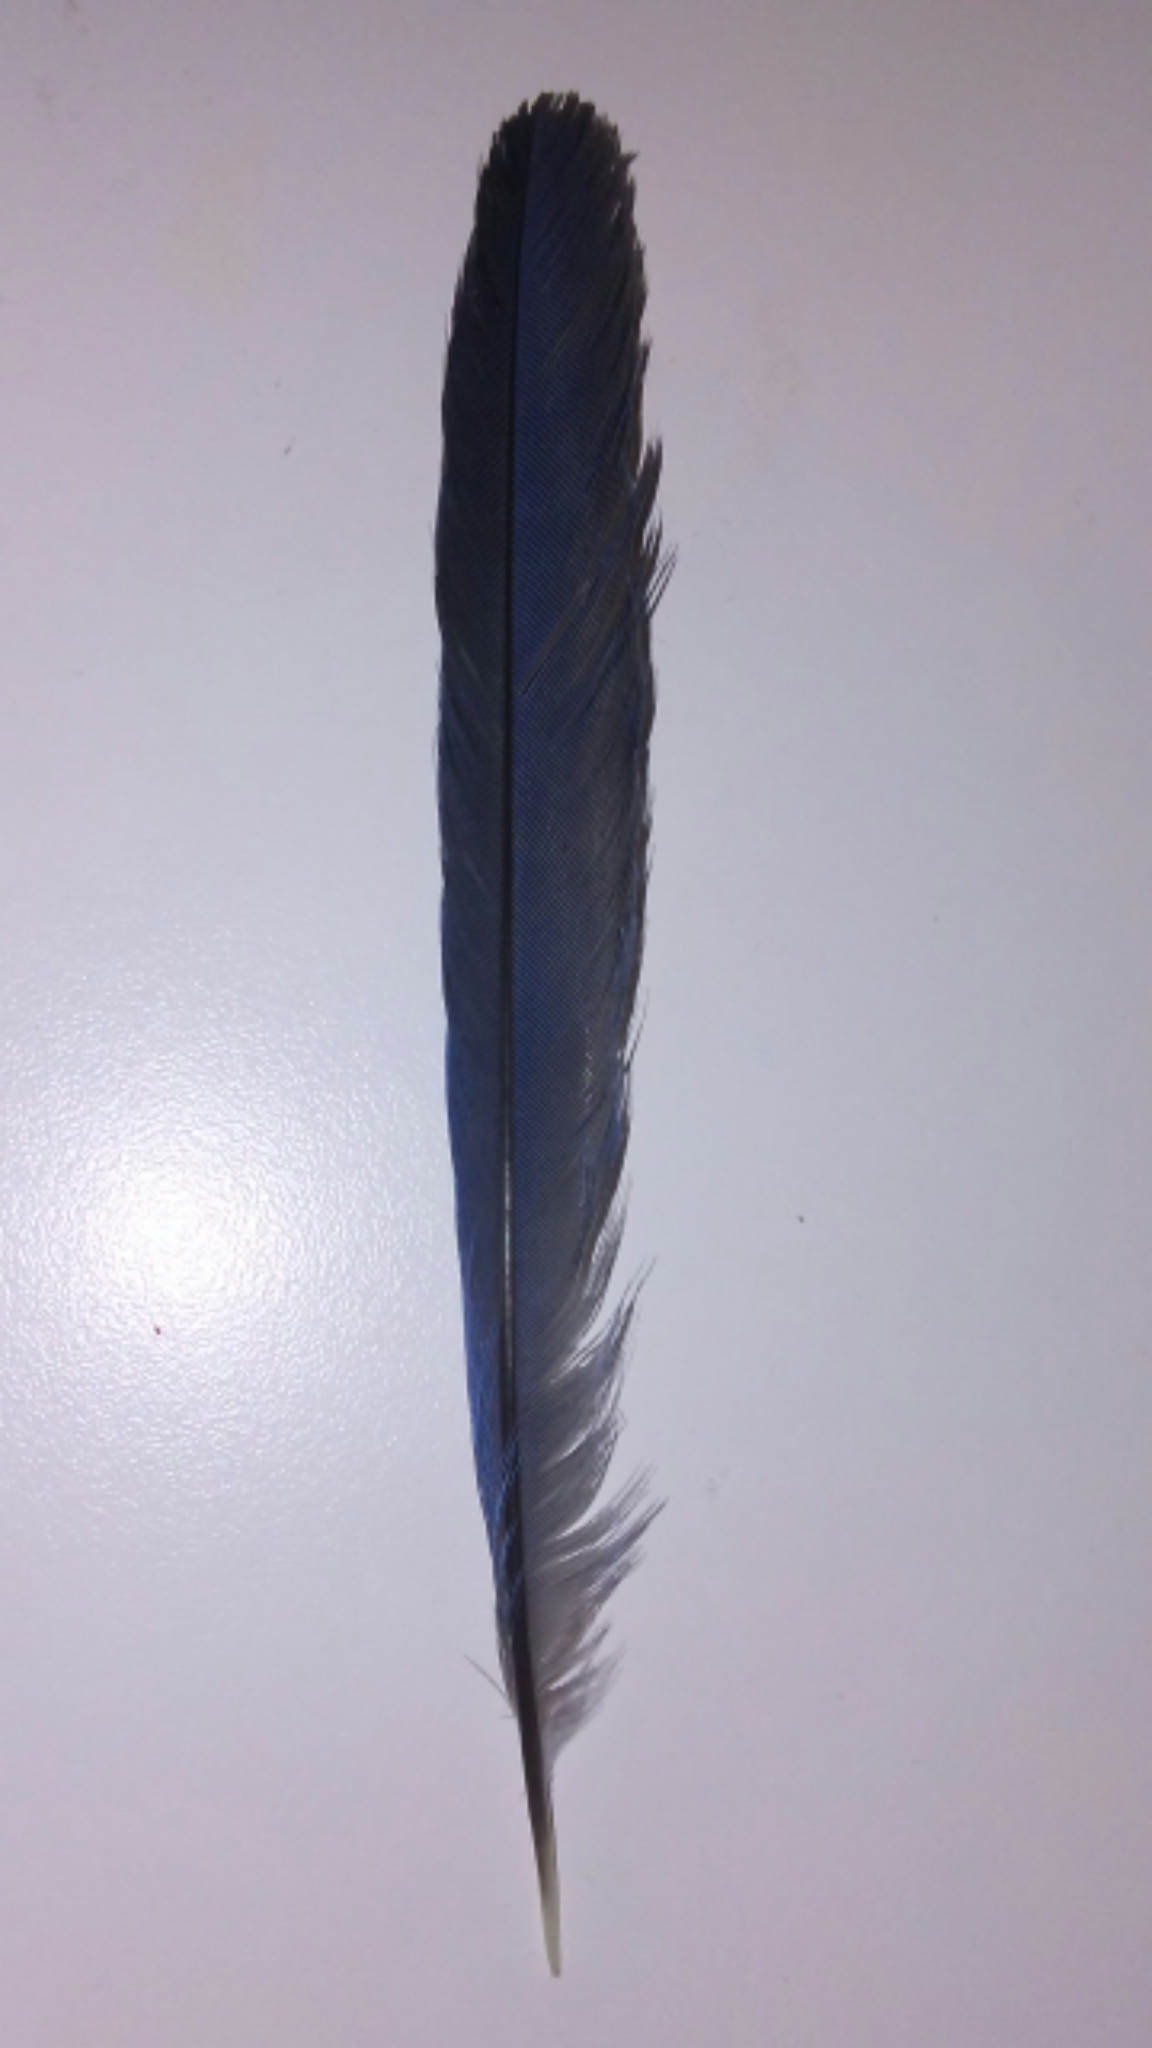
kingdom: Animalia
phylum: Chordata
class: Aves
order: Passeriformes
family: Corvidae
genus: Aphelocoma
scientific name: Aphelocoma californica
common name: California scrub-jay
